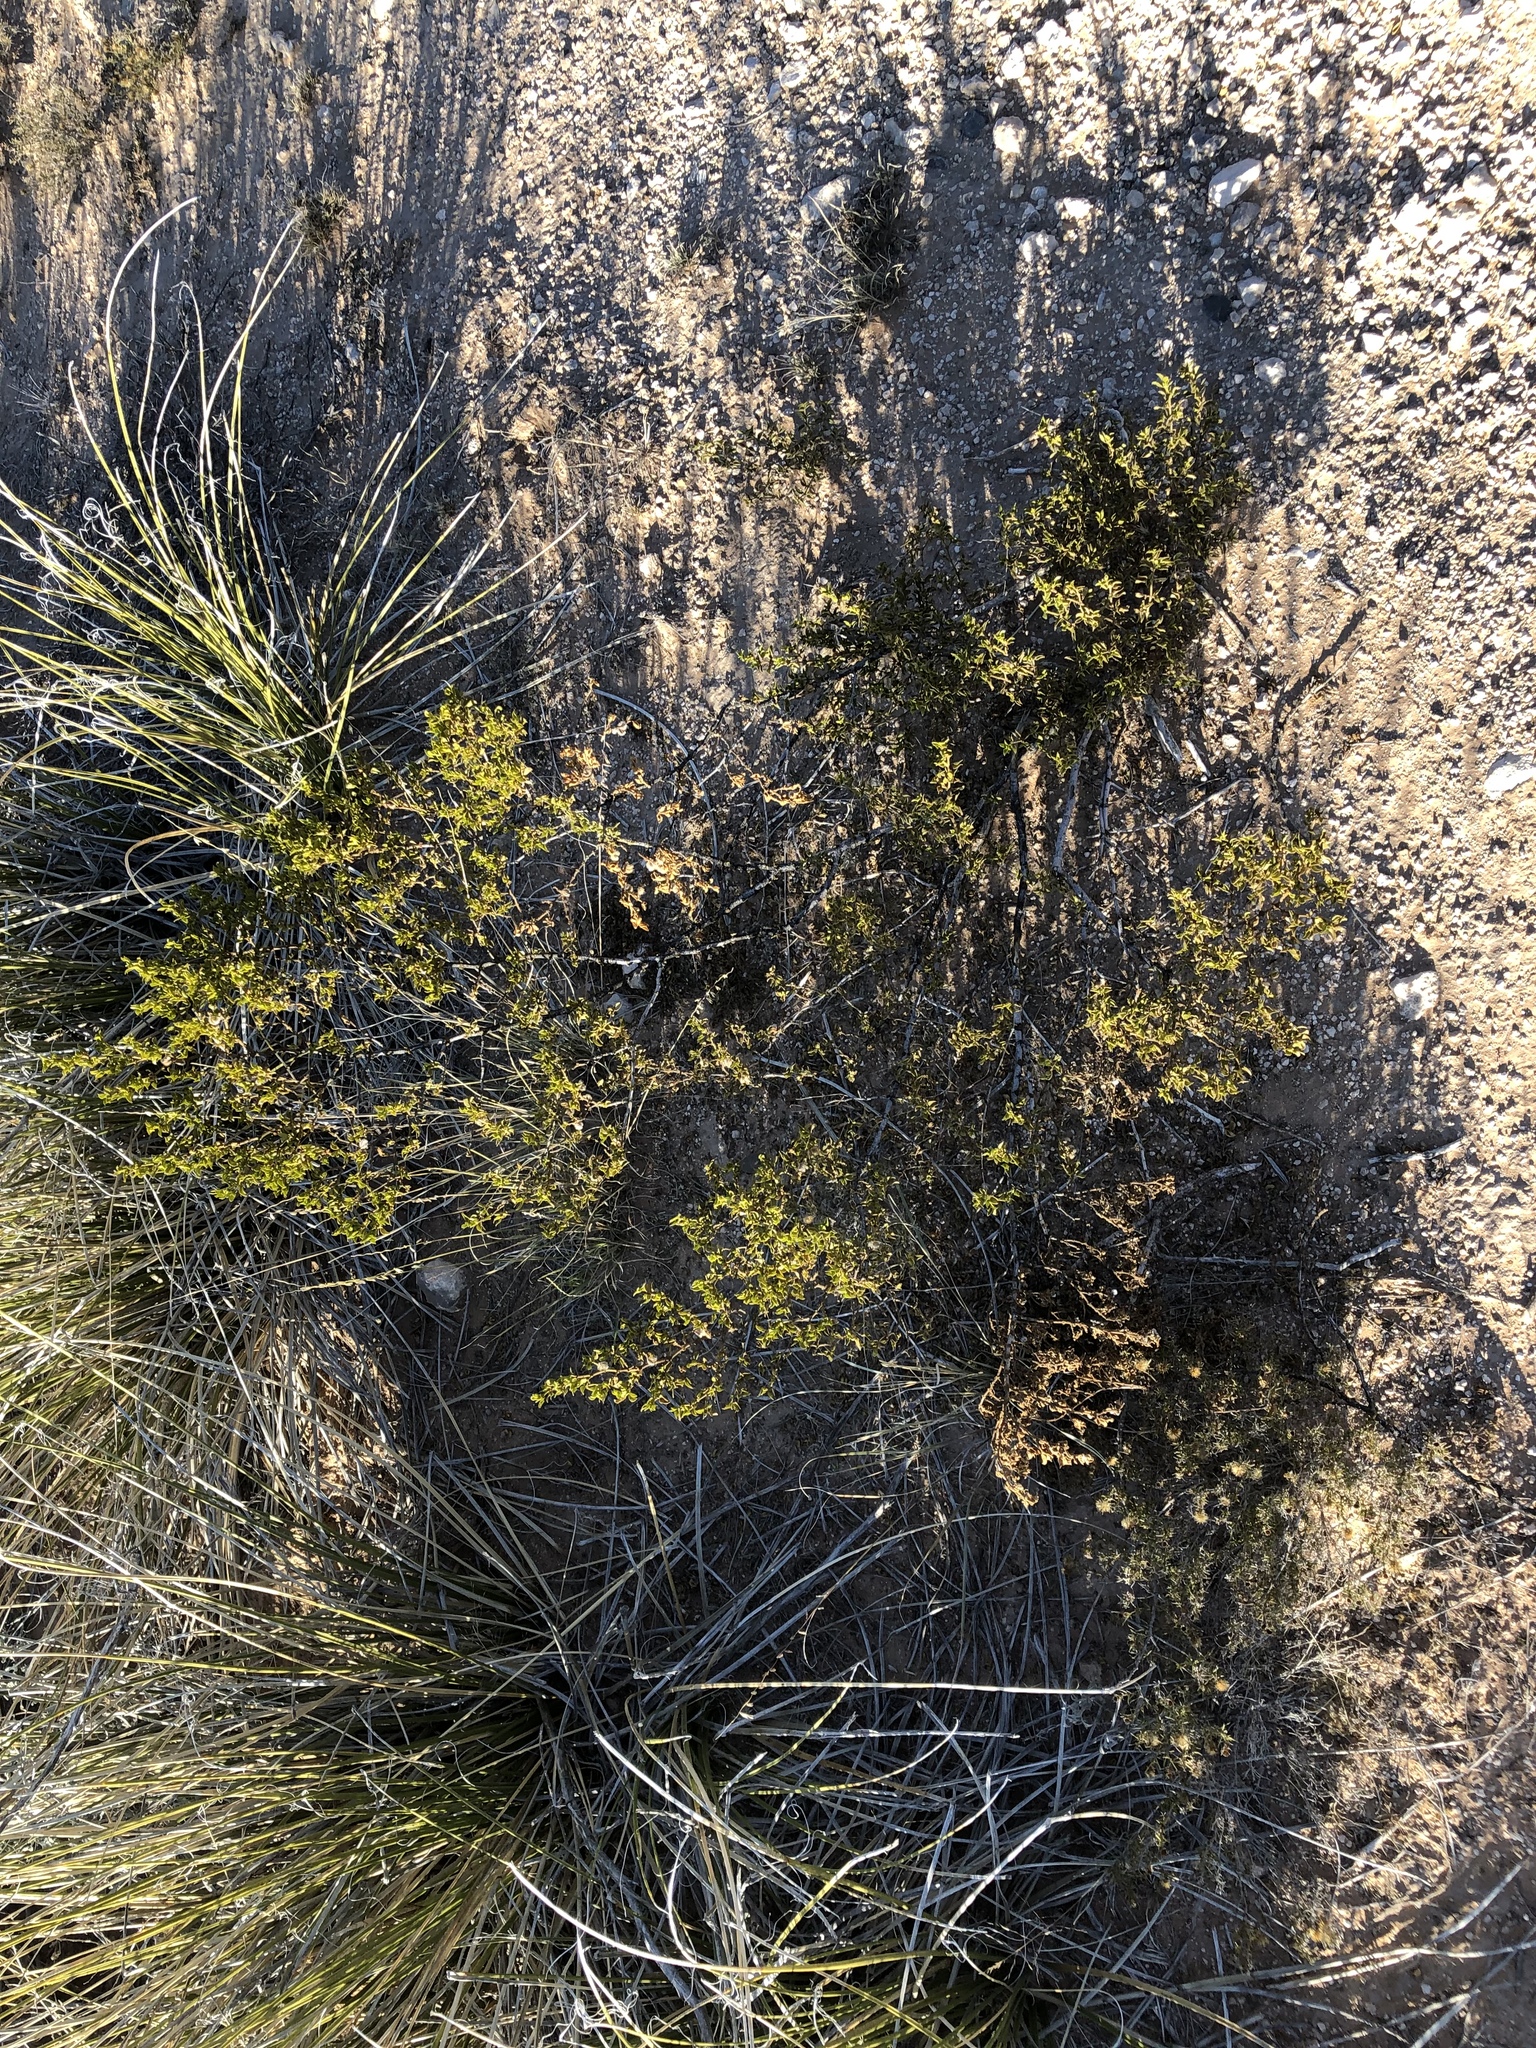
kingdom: Plantae
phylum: Tracheophyta
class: Magnoliopsida
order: Zygophyllales
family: Zygophyllaceae
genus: Larrea
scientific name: Larrea tridentata
